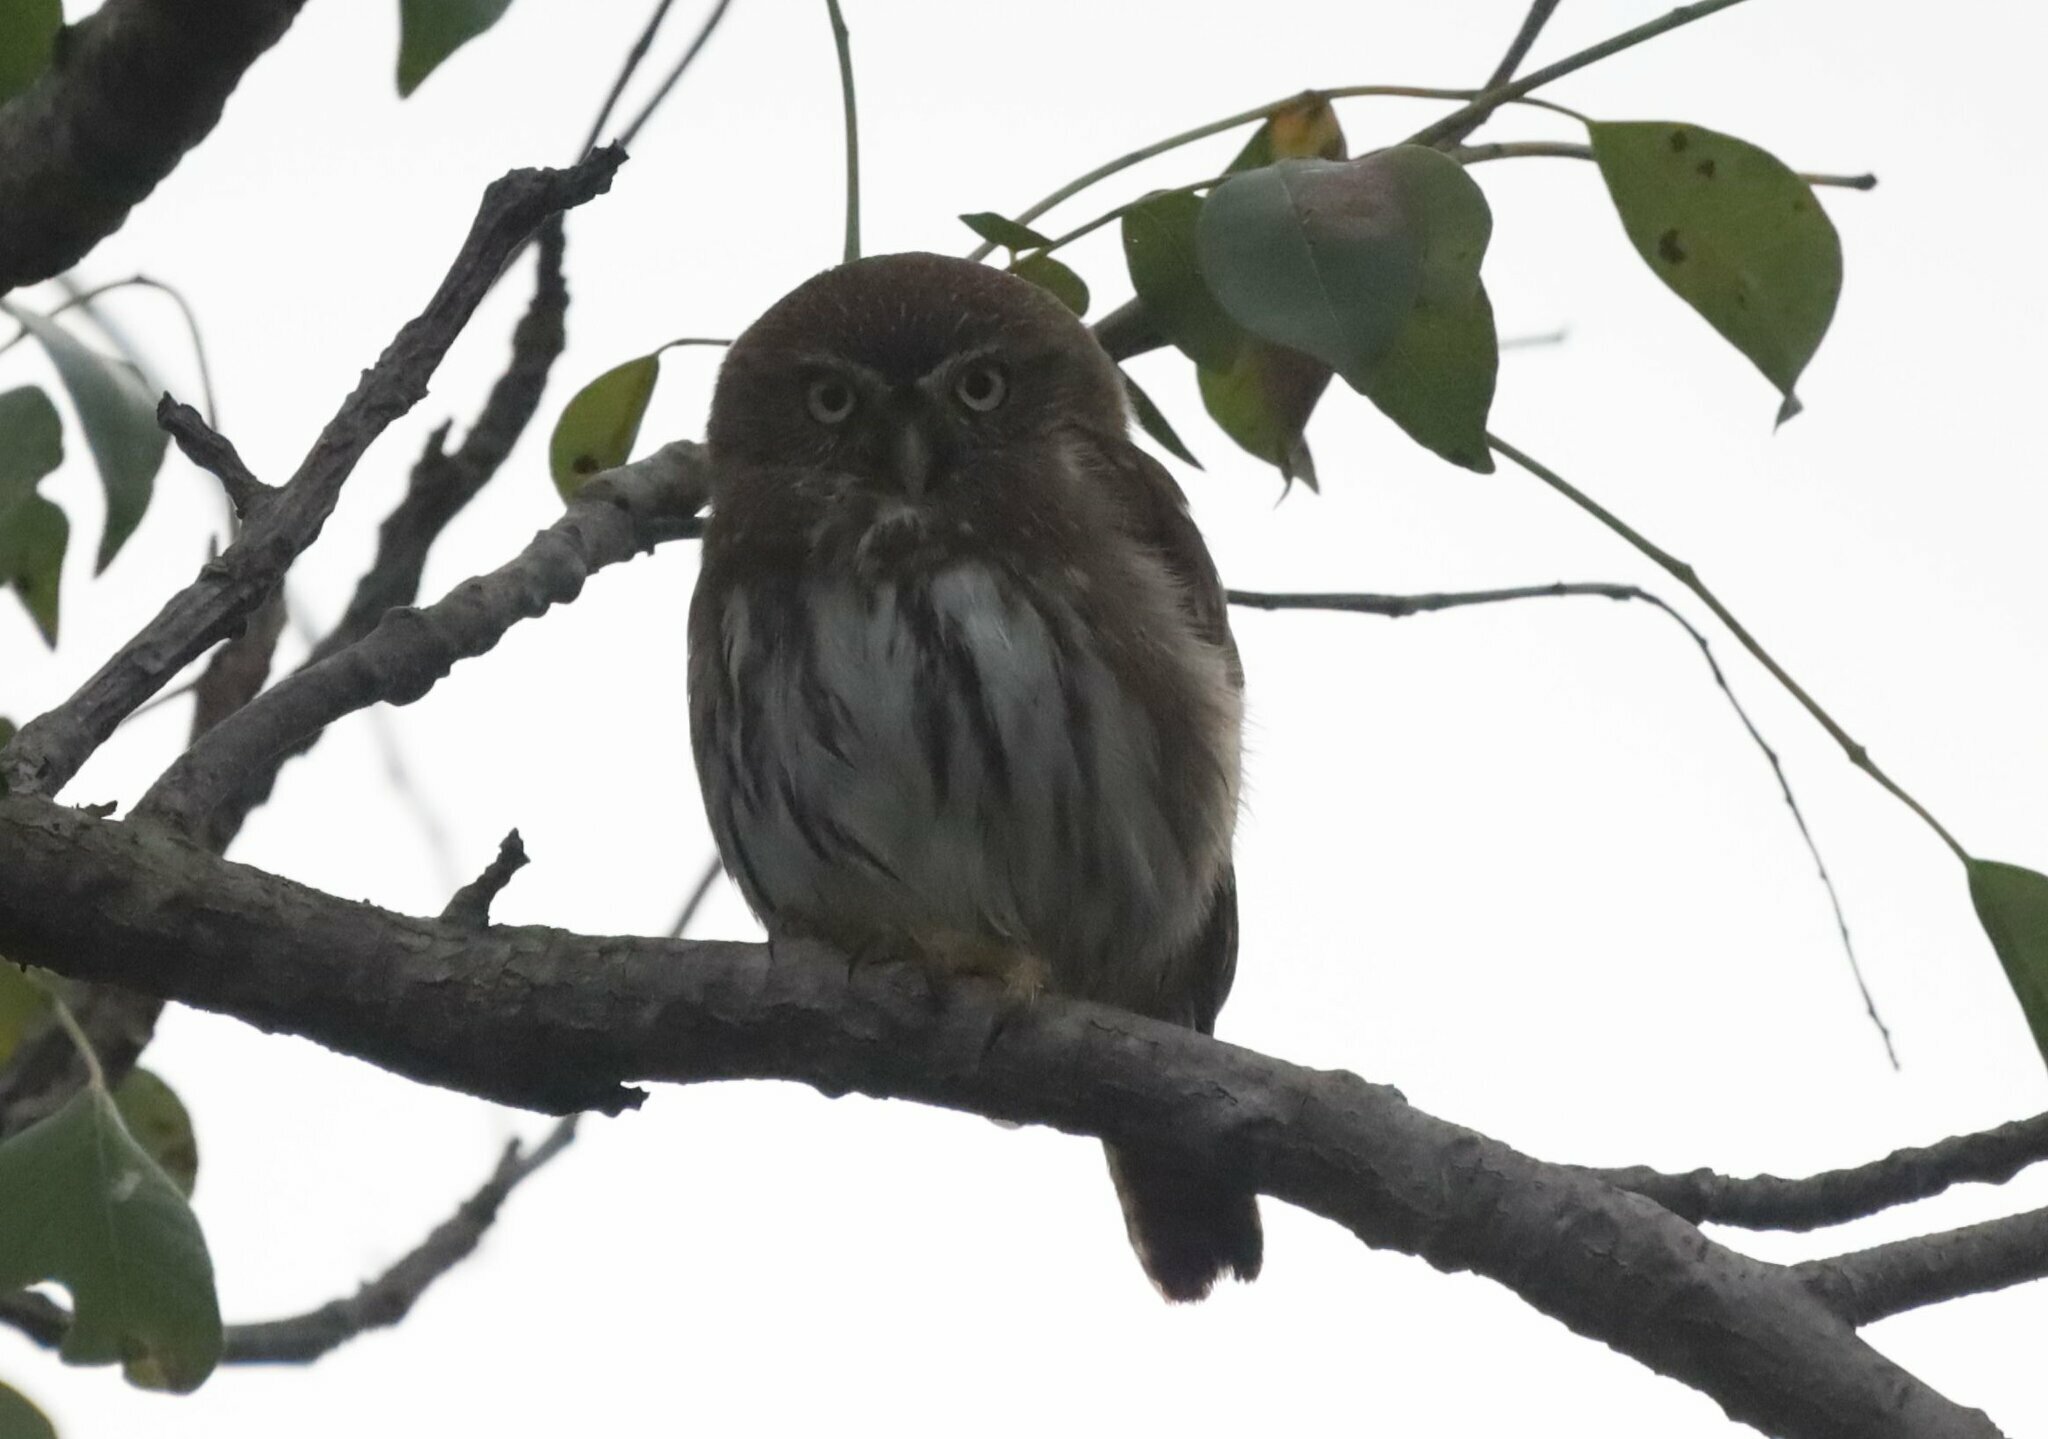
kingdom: Animalia
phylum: Chordata
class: Aves
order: Strigiformes
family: Strigidae
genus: Glaucidium
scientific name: Glaucidium brasilianum
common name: Ferruginous pygmy-owl
